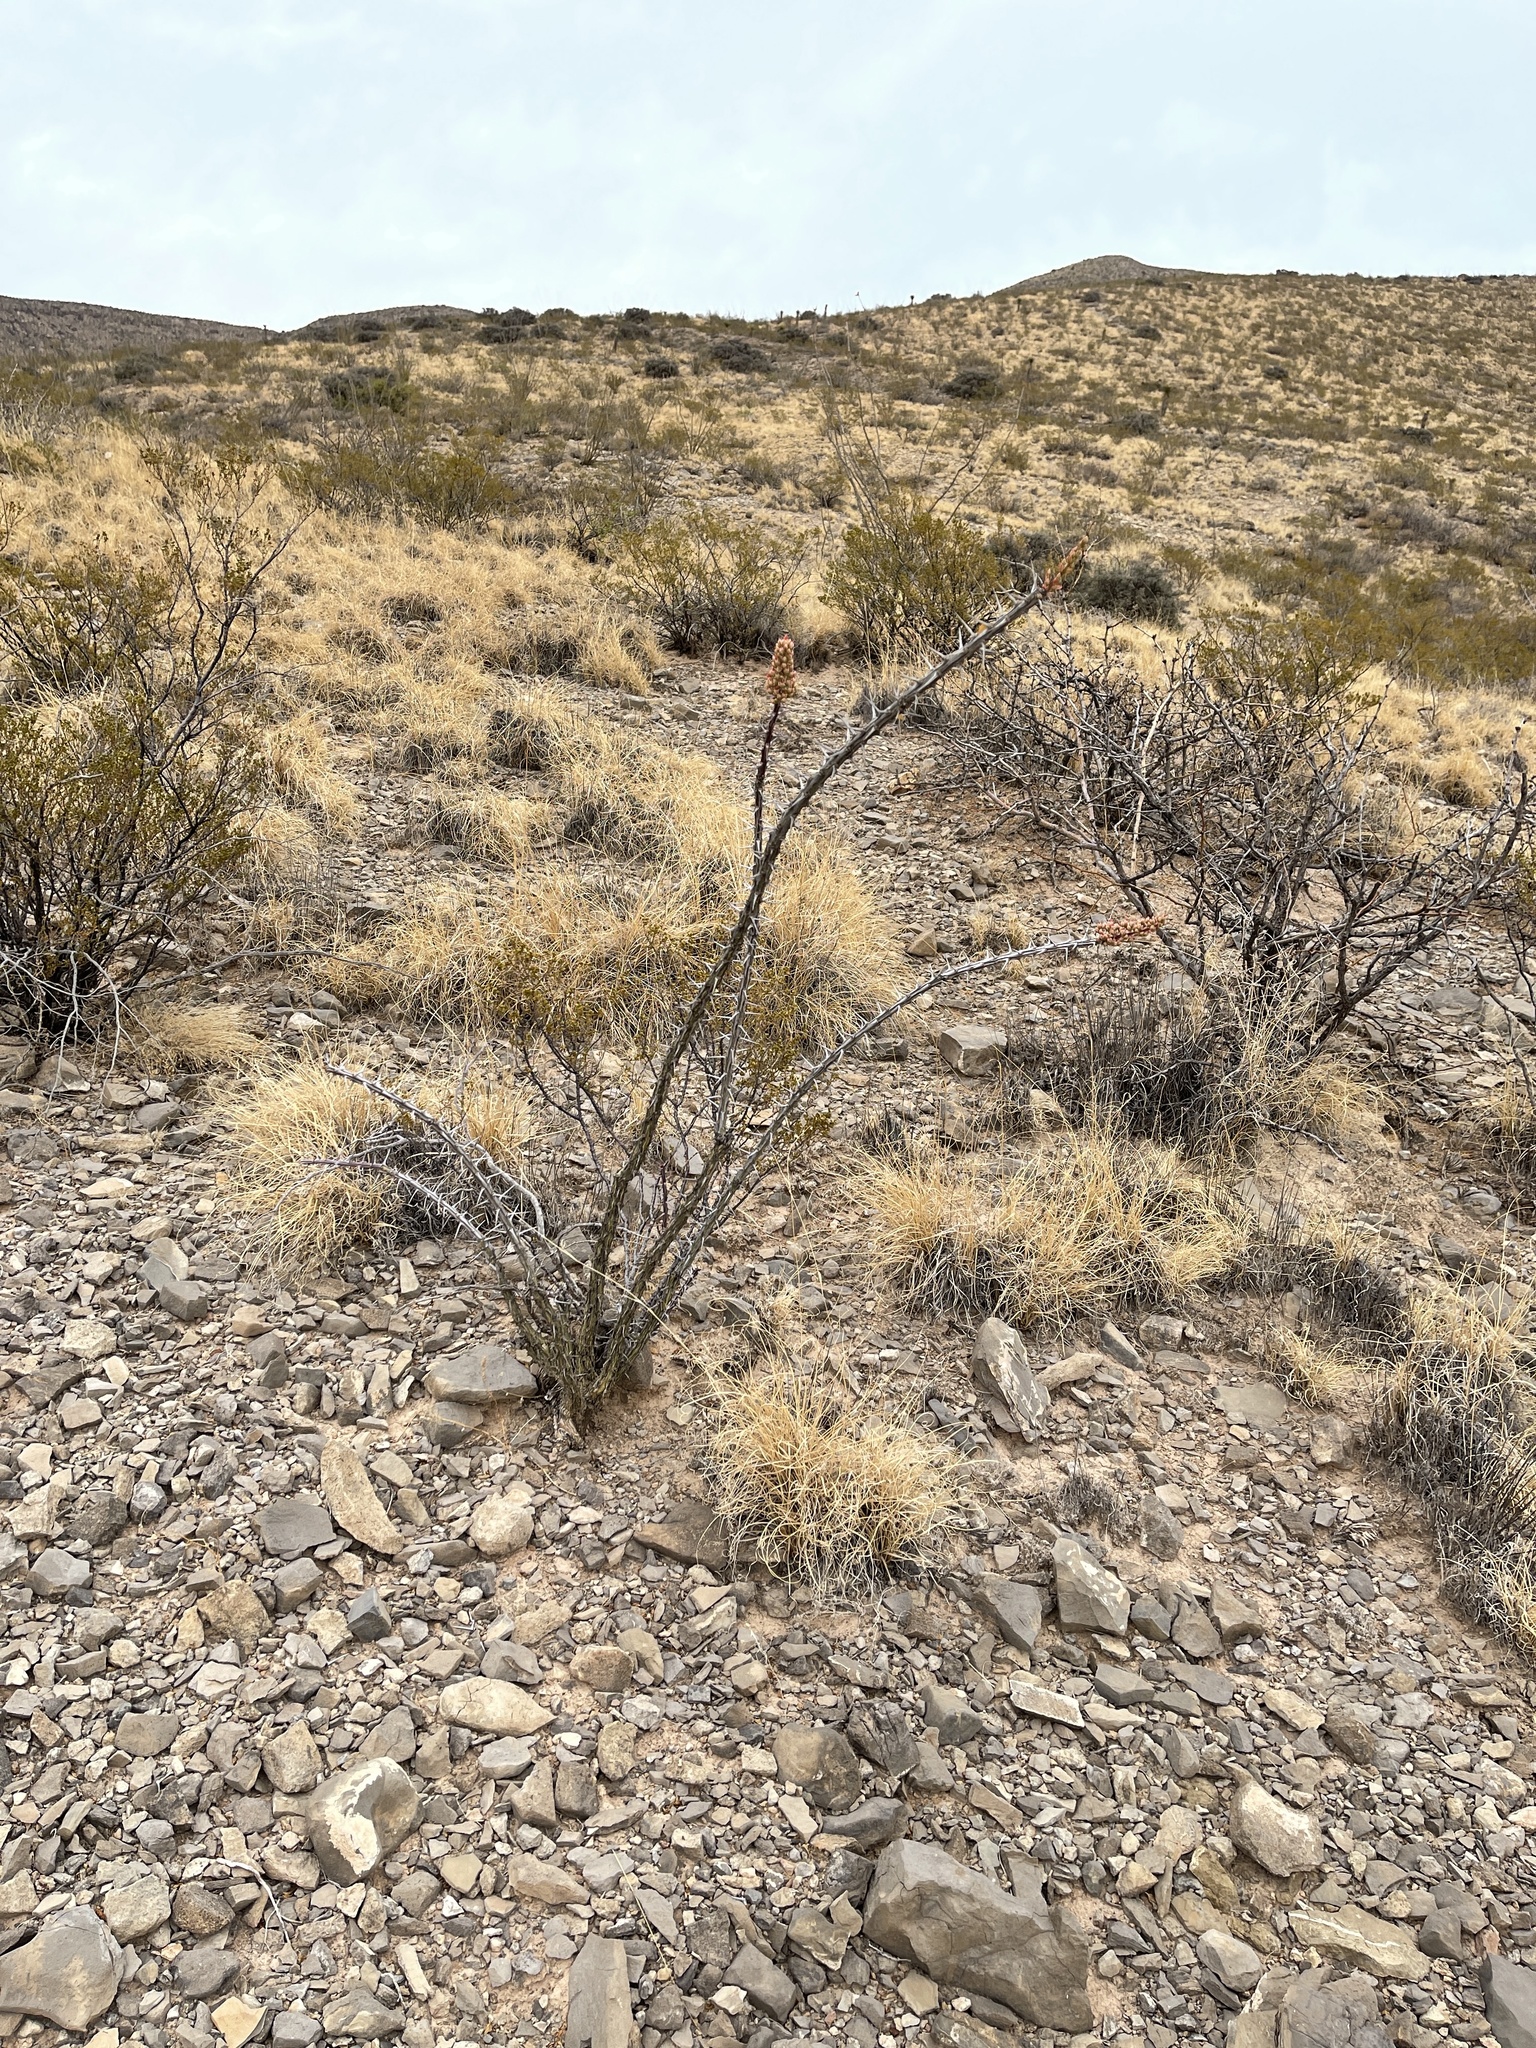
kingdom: Plantae
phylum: Tracheophyta
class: Magnoliopsida
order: Ericales
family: Fouquieriaceae
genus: Fouquieria
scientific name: Fouquieria splendens
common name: Vine-cactus
